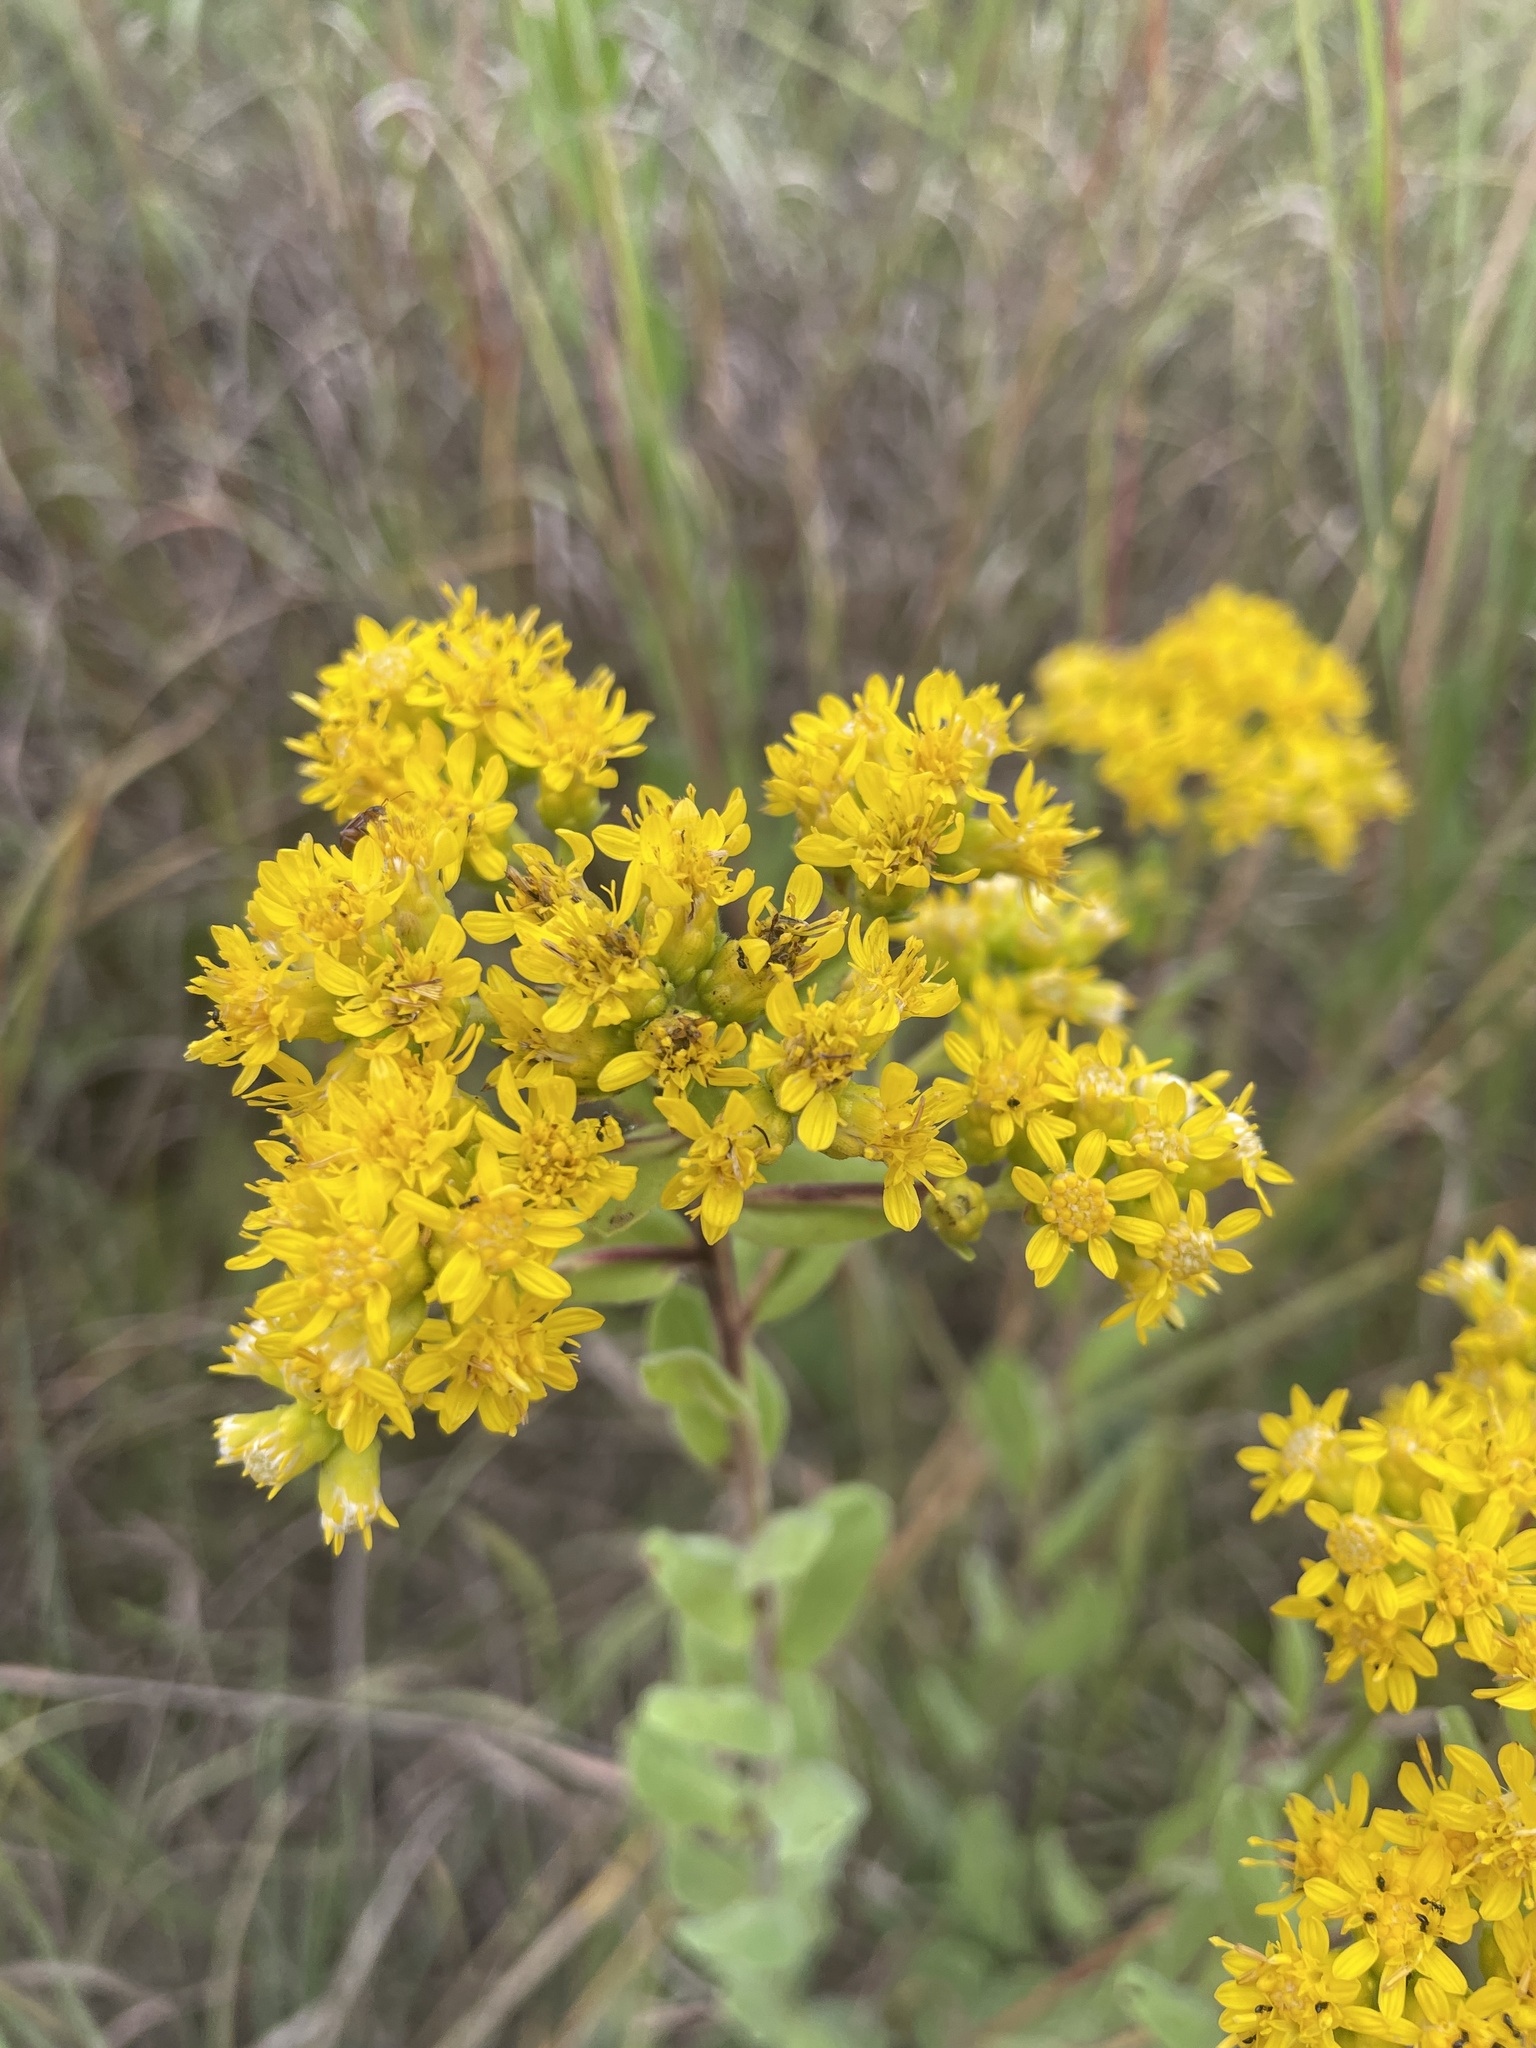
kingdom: Plantae
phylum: Tracheophyta
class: Magnoliopsida
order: Asterales
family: Asteraceae
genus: Solidago
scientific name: Solidago rigida
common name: Rigid goldenrod
